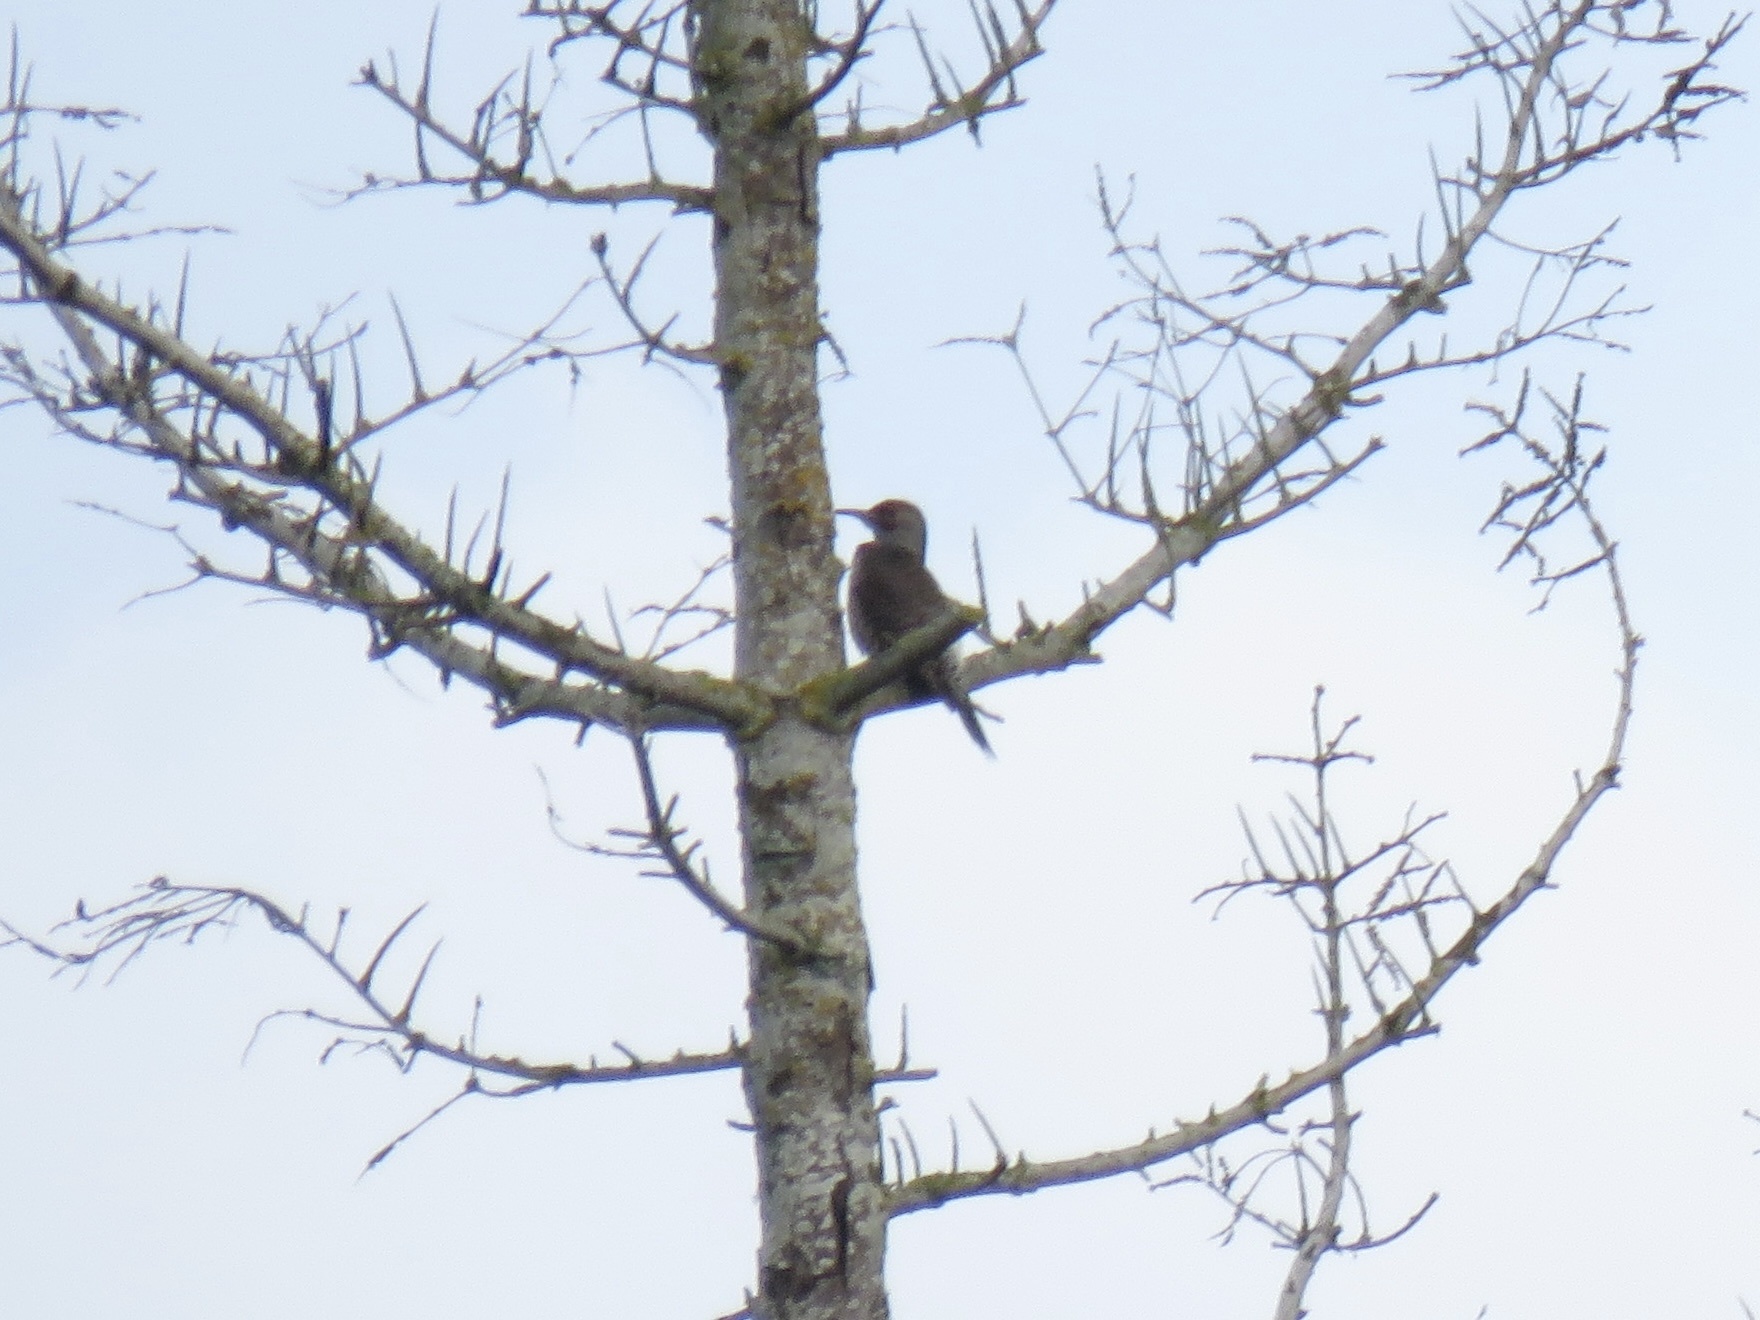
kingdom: Animalia
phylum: Chordata
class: Aves
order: Piciformes
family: Picidae
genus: Colaptes
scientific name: Colaptes auratus
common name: Northern flicker
